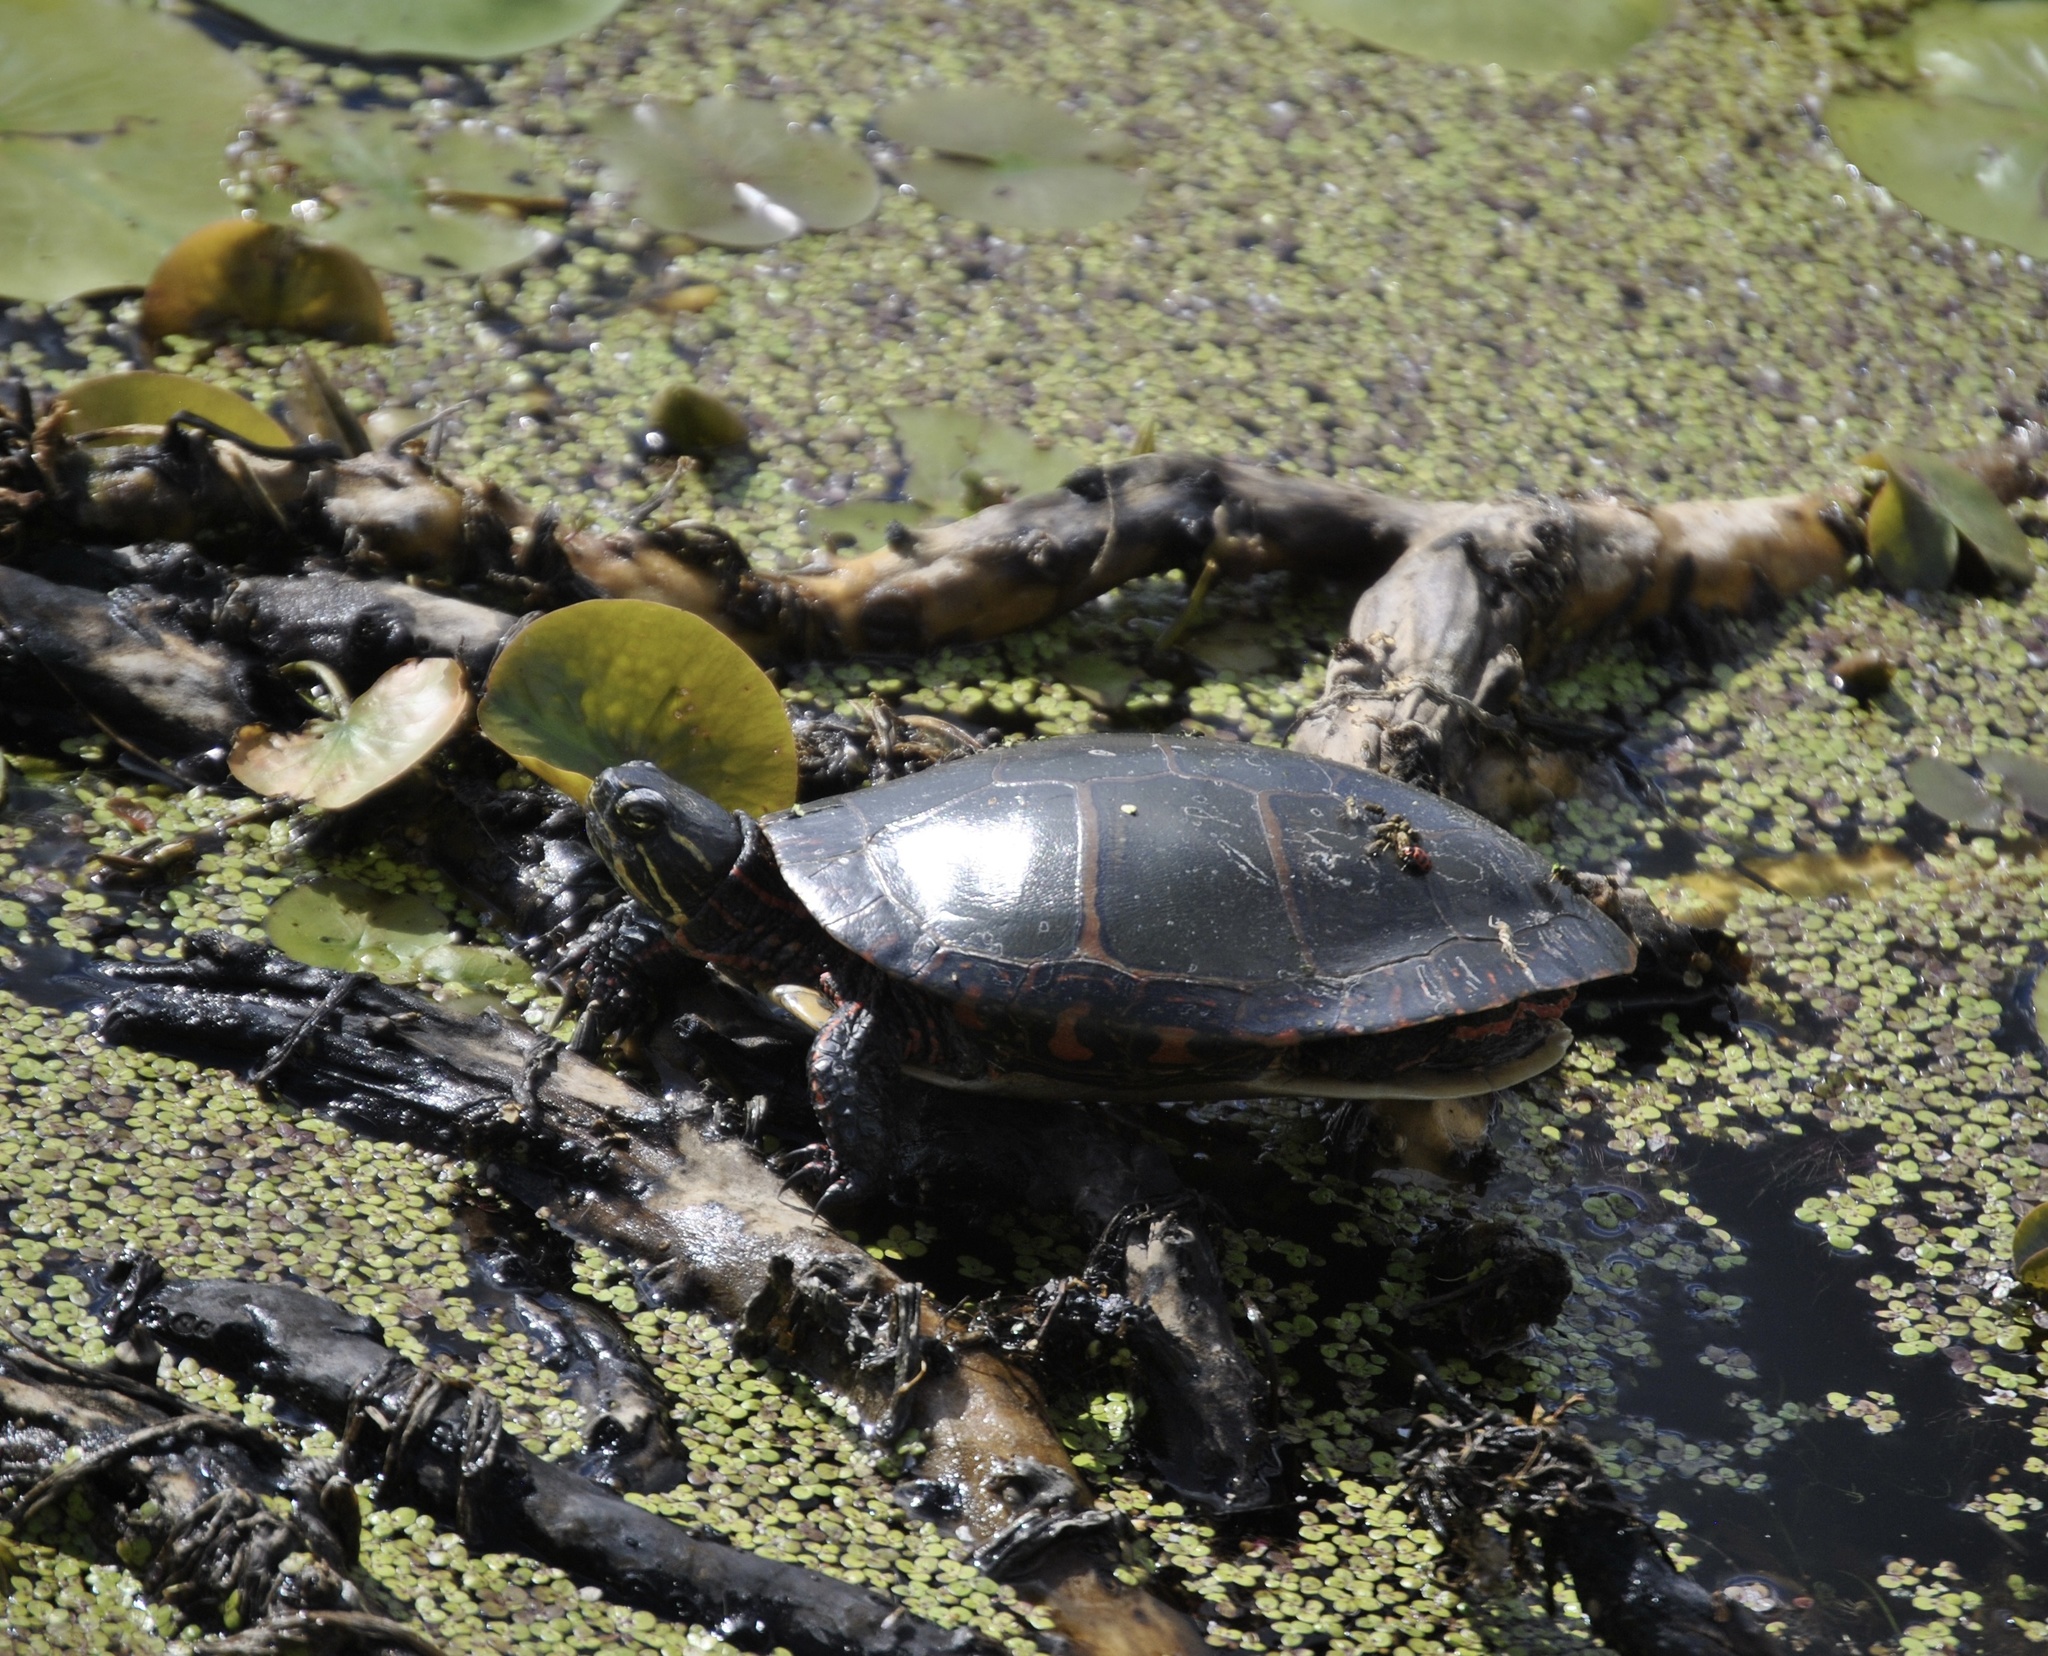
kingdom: Animalia
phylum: Chordata
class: Testudines
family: Emydidae
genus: Chrysemys
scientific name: Chrysemys picta
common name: Painted turtle
